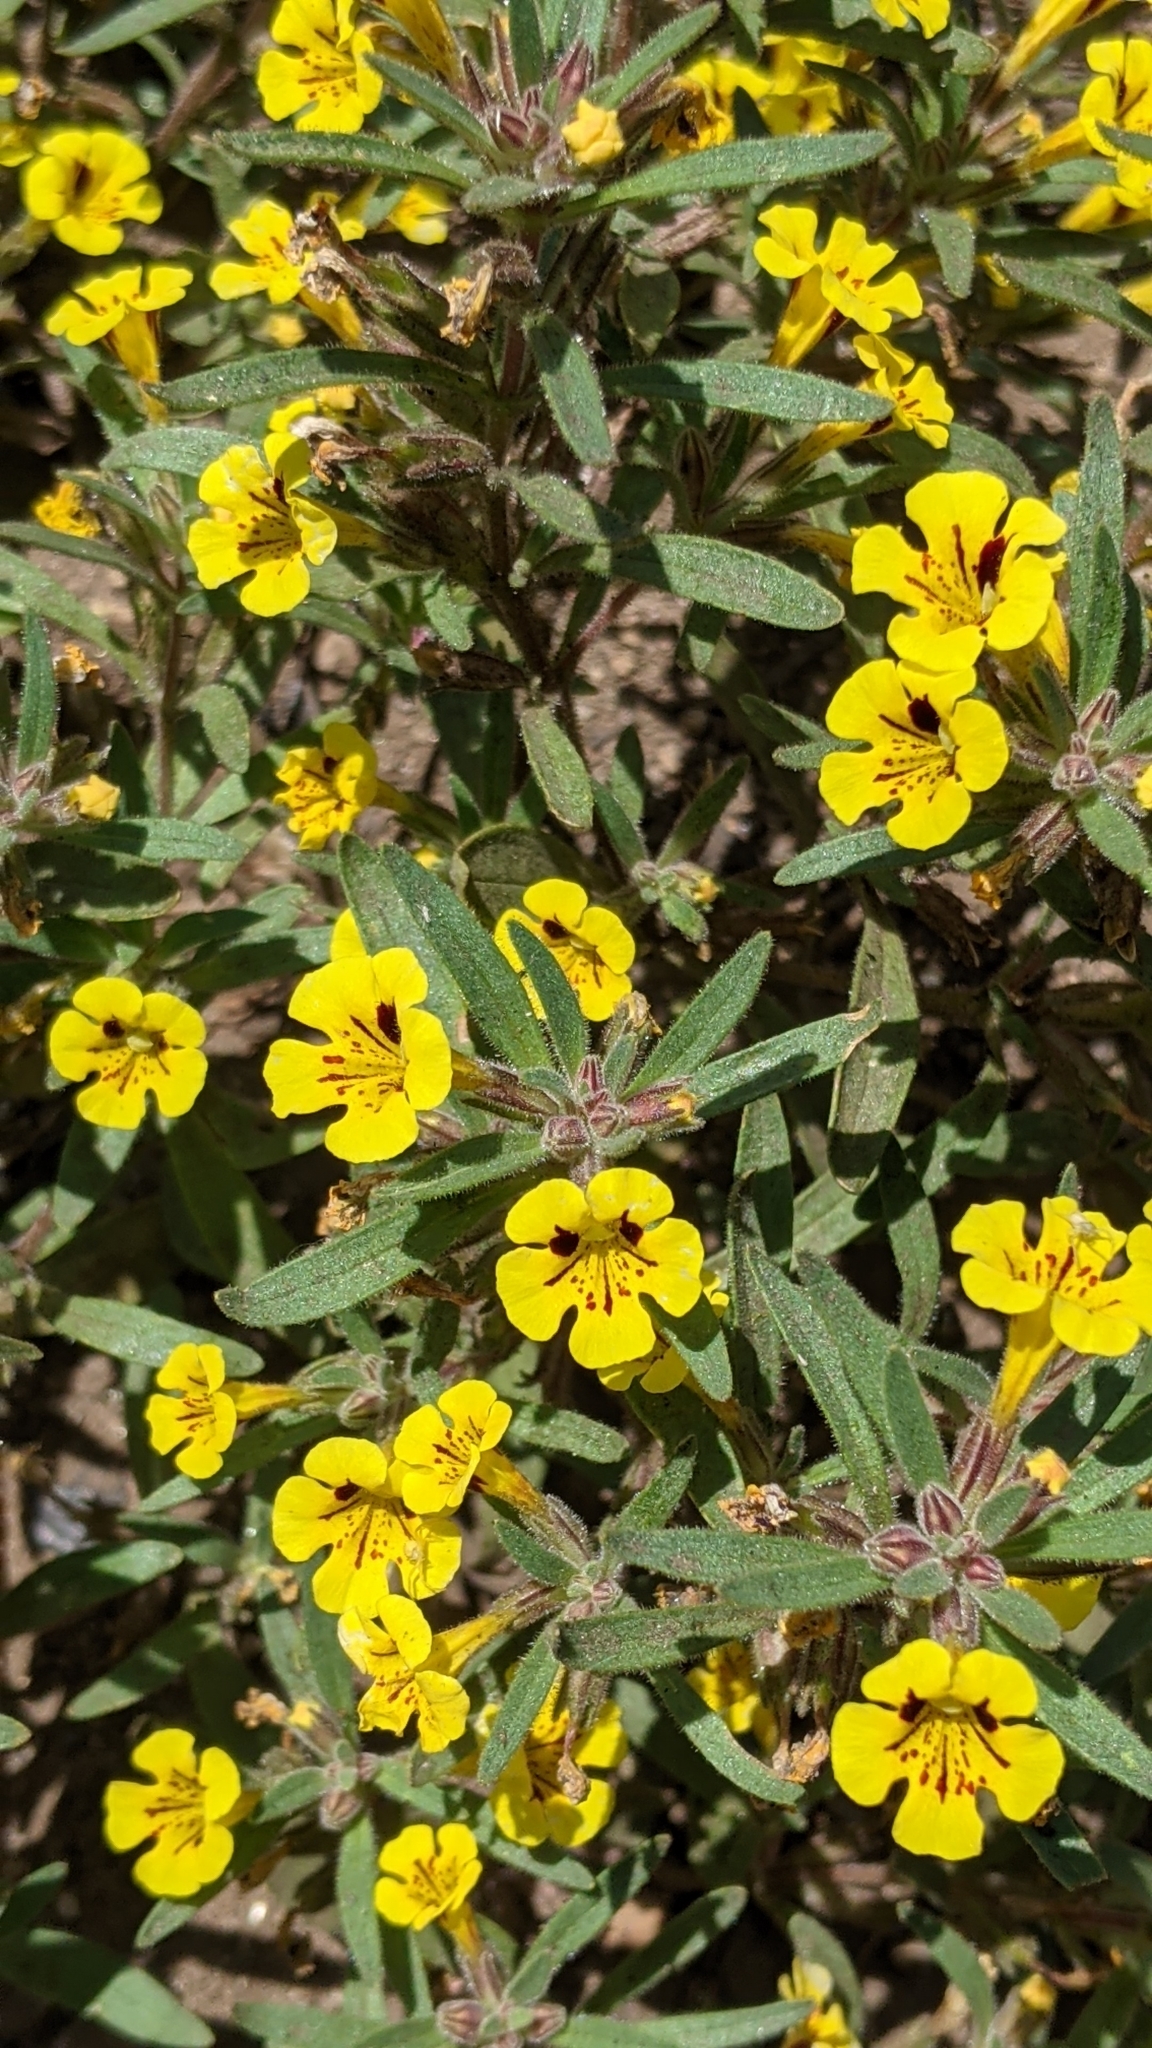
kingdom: Plantae
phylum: Tracheophyta
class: Magnoliopsida
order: Lamiales
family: Phrymaceae
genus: Diplacus
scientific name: Diplacus bicolor
